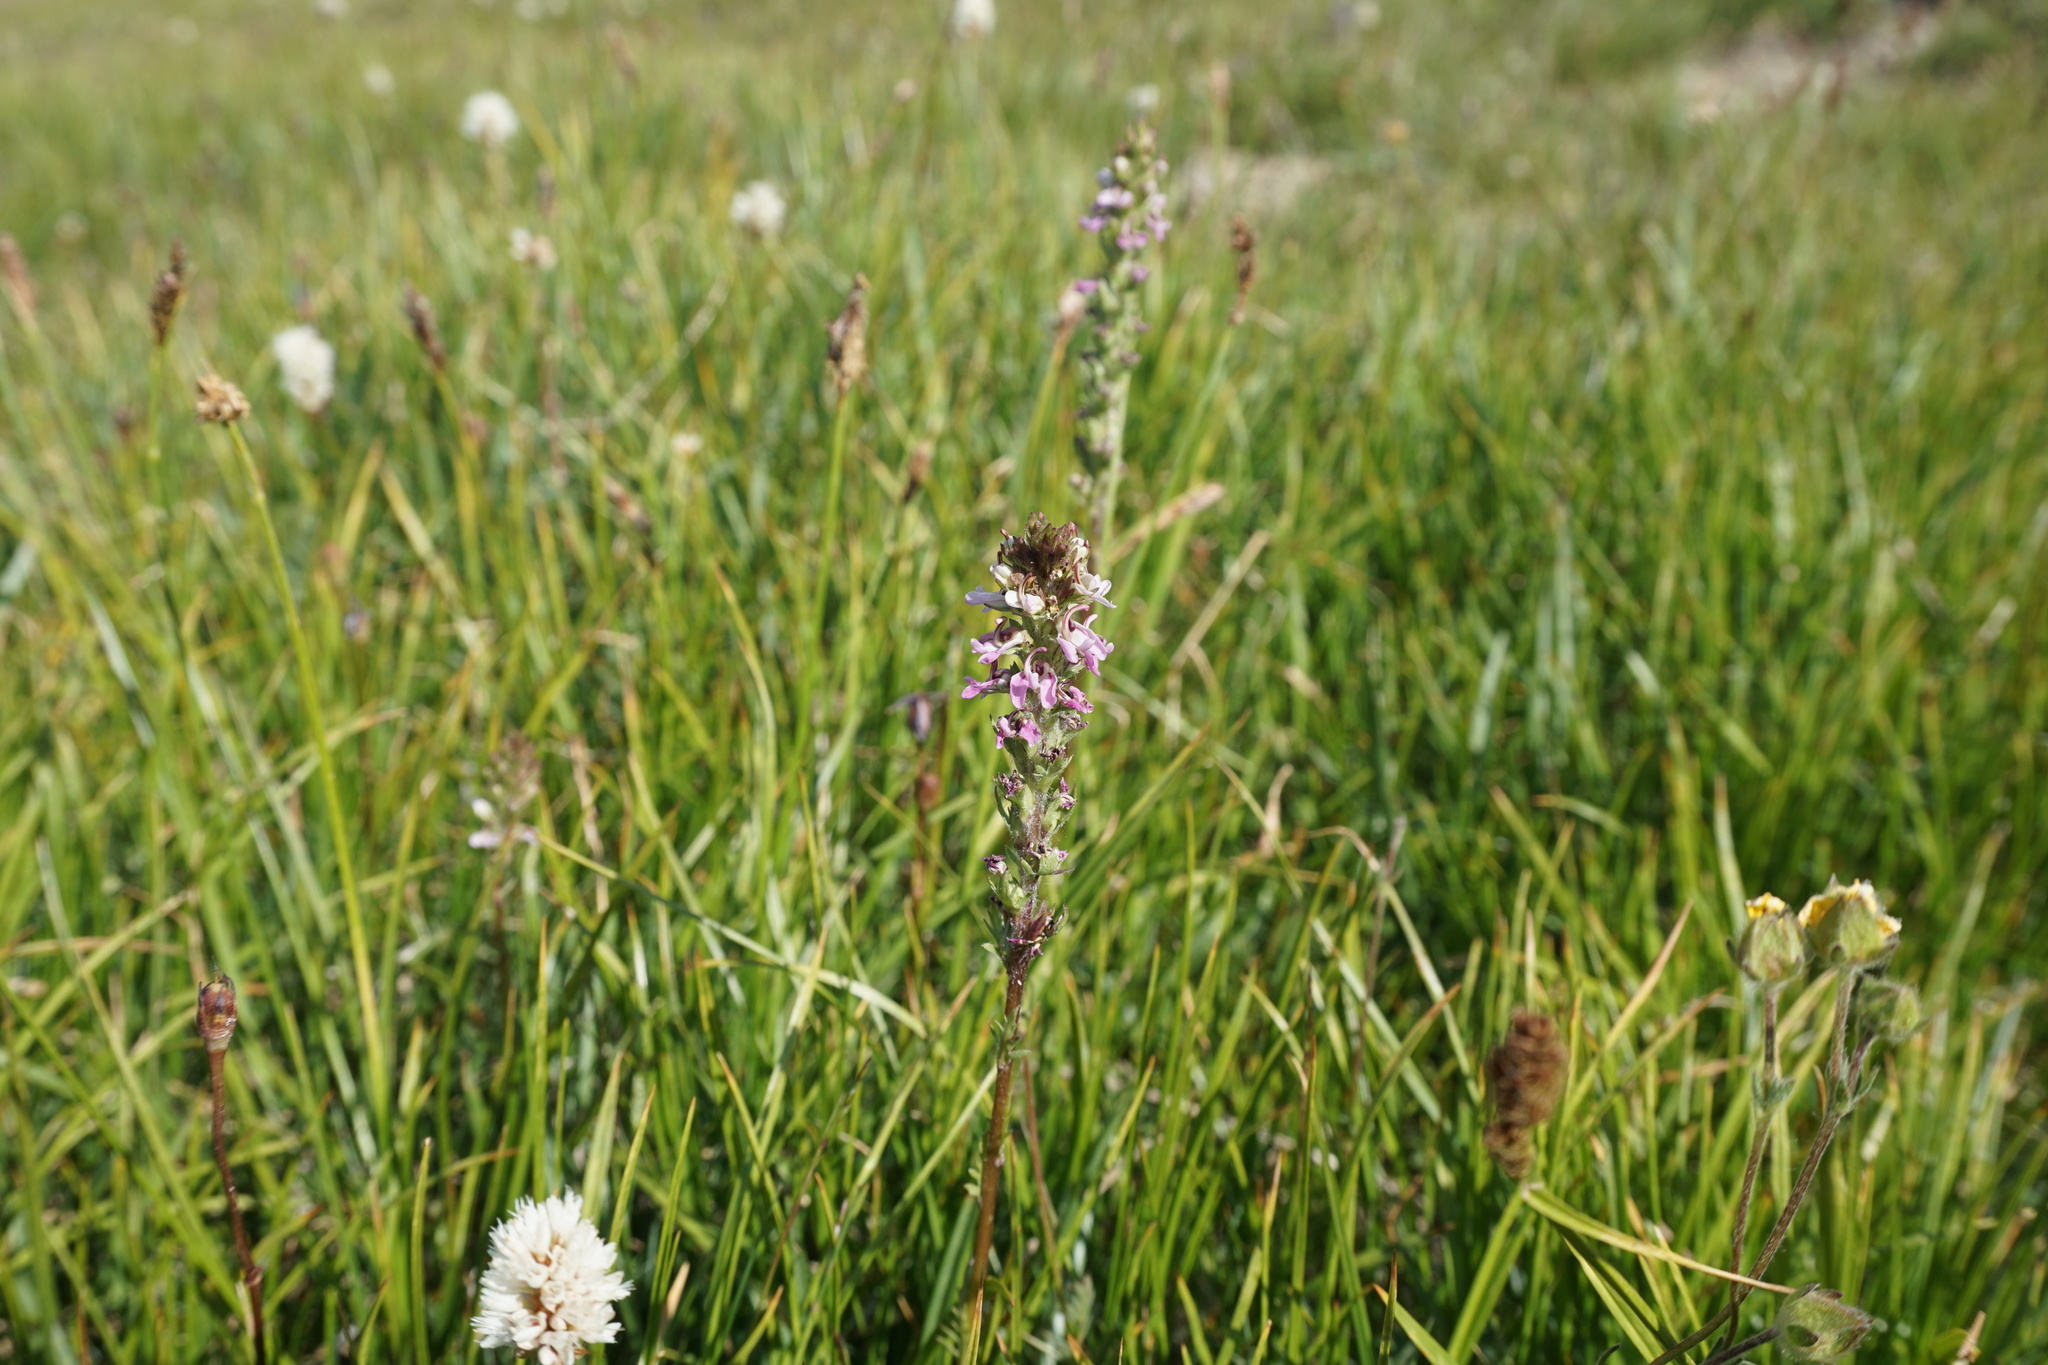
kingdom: Plantae
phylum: Tracheophyta
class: Magnoliopsida
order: Lamiales
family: Orobanchaceae
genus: Pedicularis
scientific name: Pedicularis attollens
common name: Slender pedicularis
